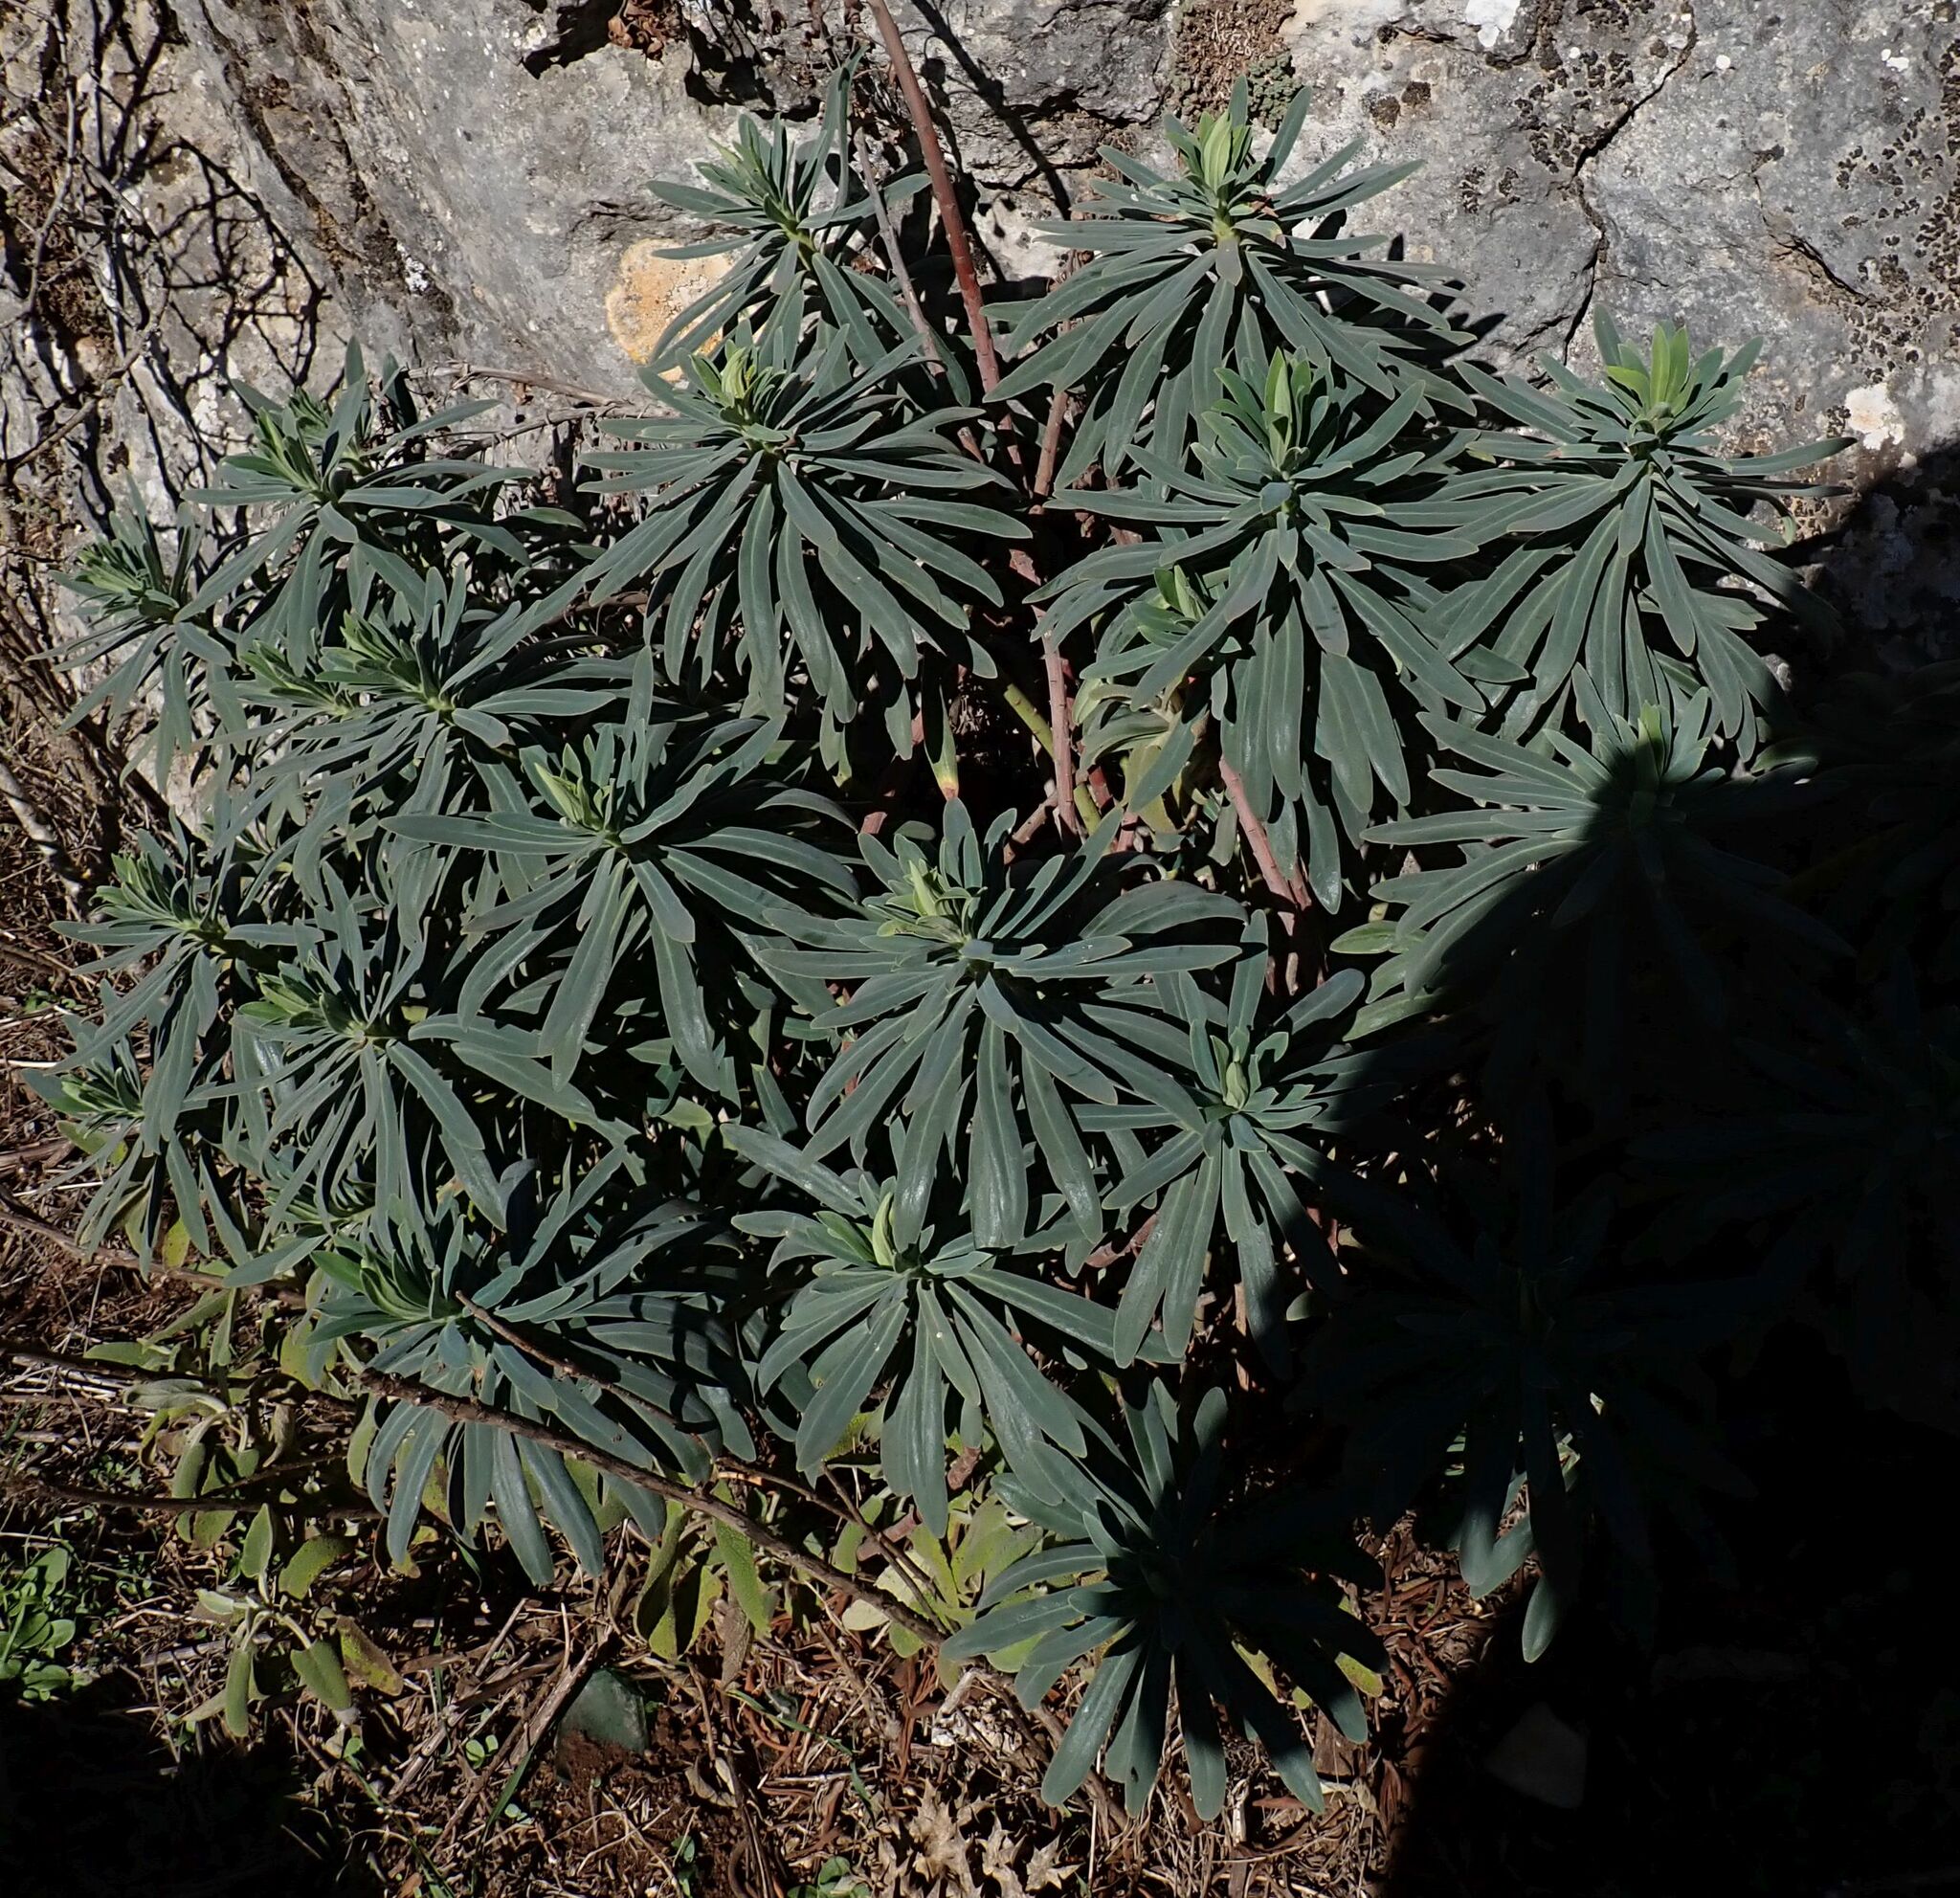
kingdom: Plantae
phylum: Tracheophyta
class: Magnoliopsida
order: Malpighiales
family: Euphorbiaceae
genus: Euphorbia
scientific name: Euphorbia characias
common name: Mediterranean spurge
